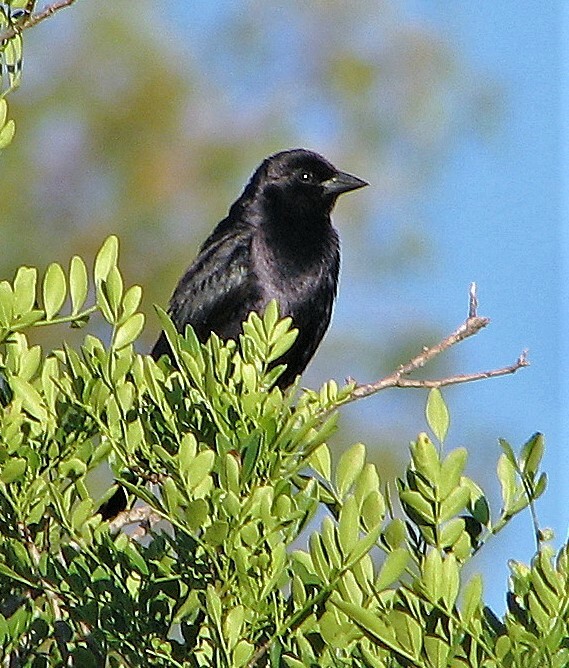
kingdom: Animalia
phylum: Chordata
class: Aves
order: Passeriformes
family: Icteridae
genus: Molothrus
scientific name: Molothrus bonariensis
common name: Shiny cowbird
